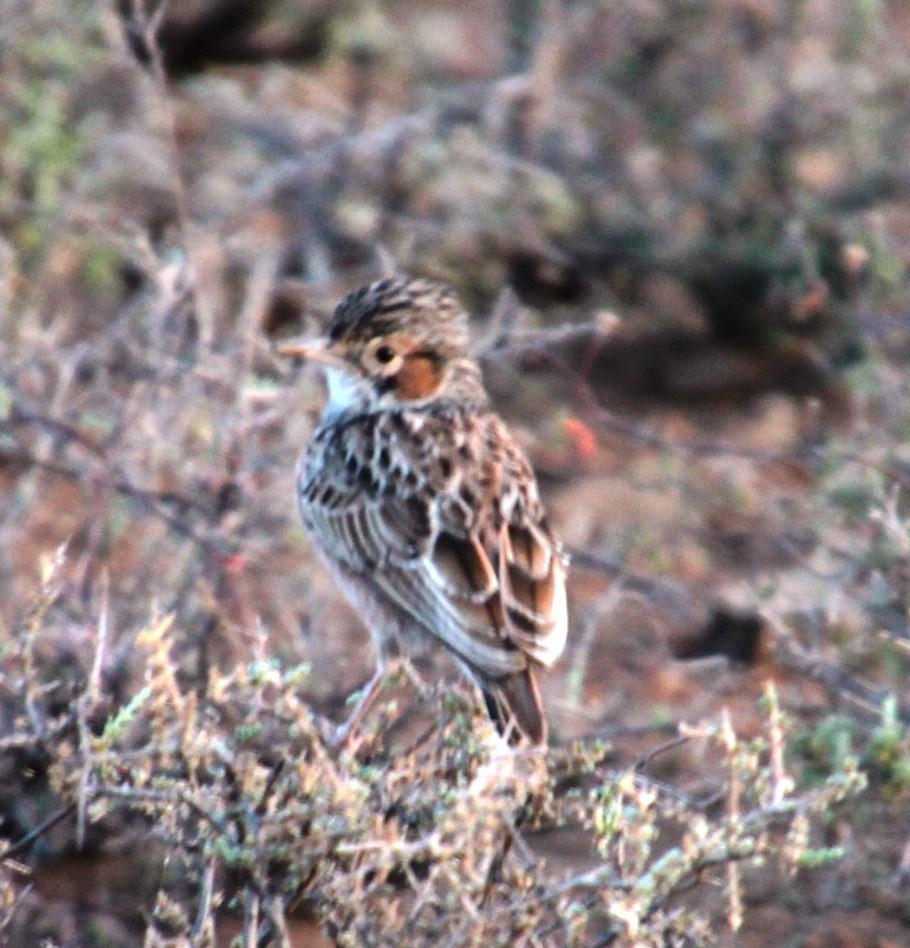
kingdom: Animalia
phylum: Chordata
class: Aves
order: Passeriformes
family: Cisticolidae
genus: Malcorus
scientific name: Malcorus pectoralis
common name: Rufous-eared warbler
